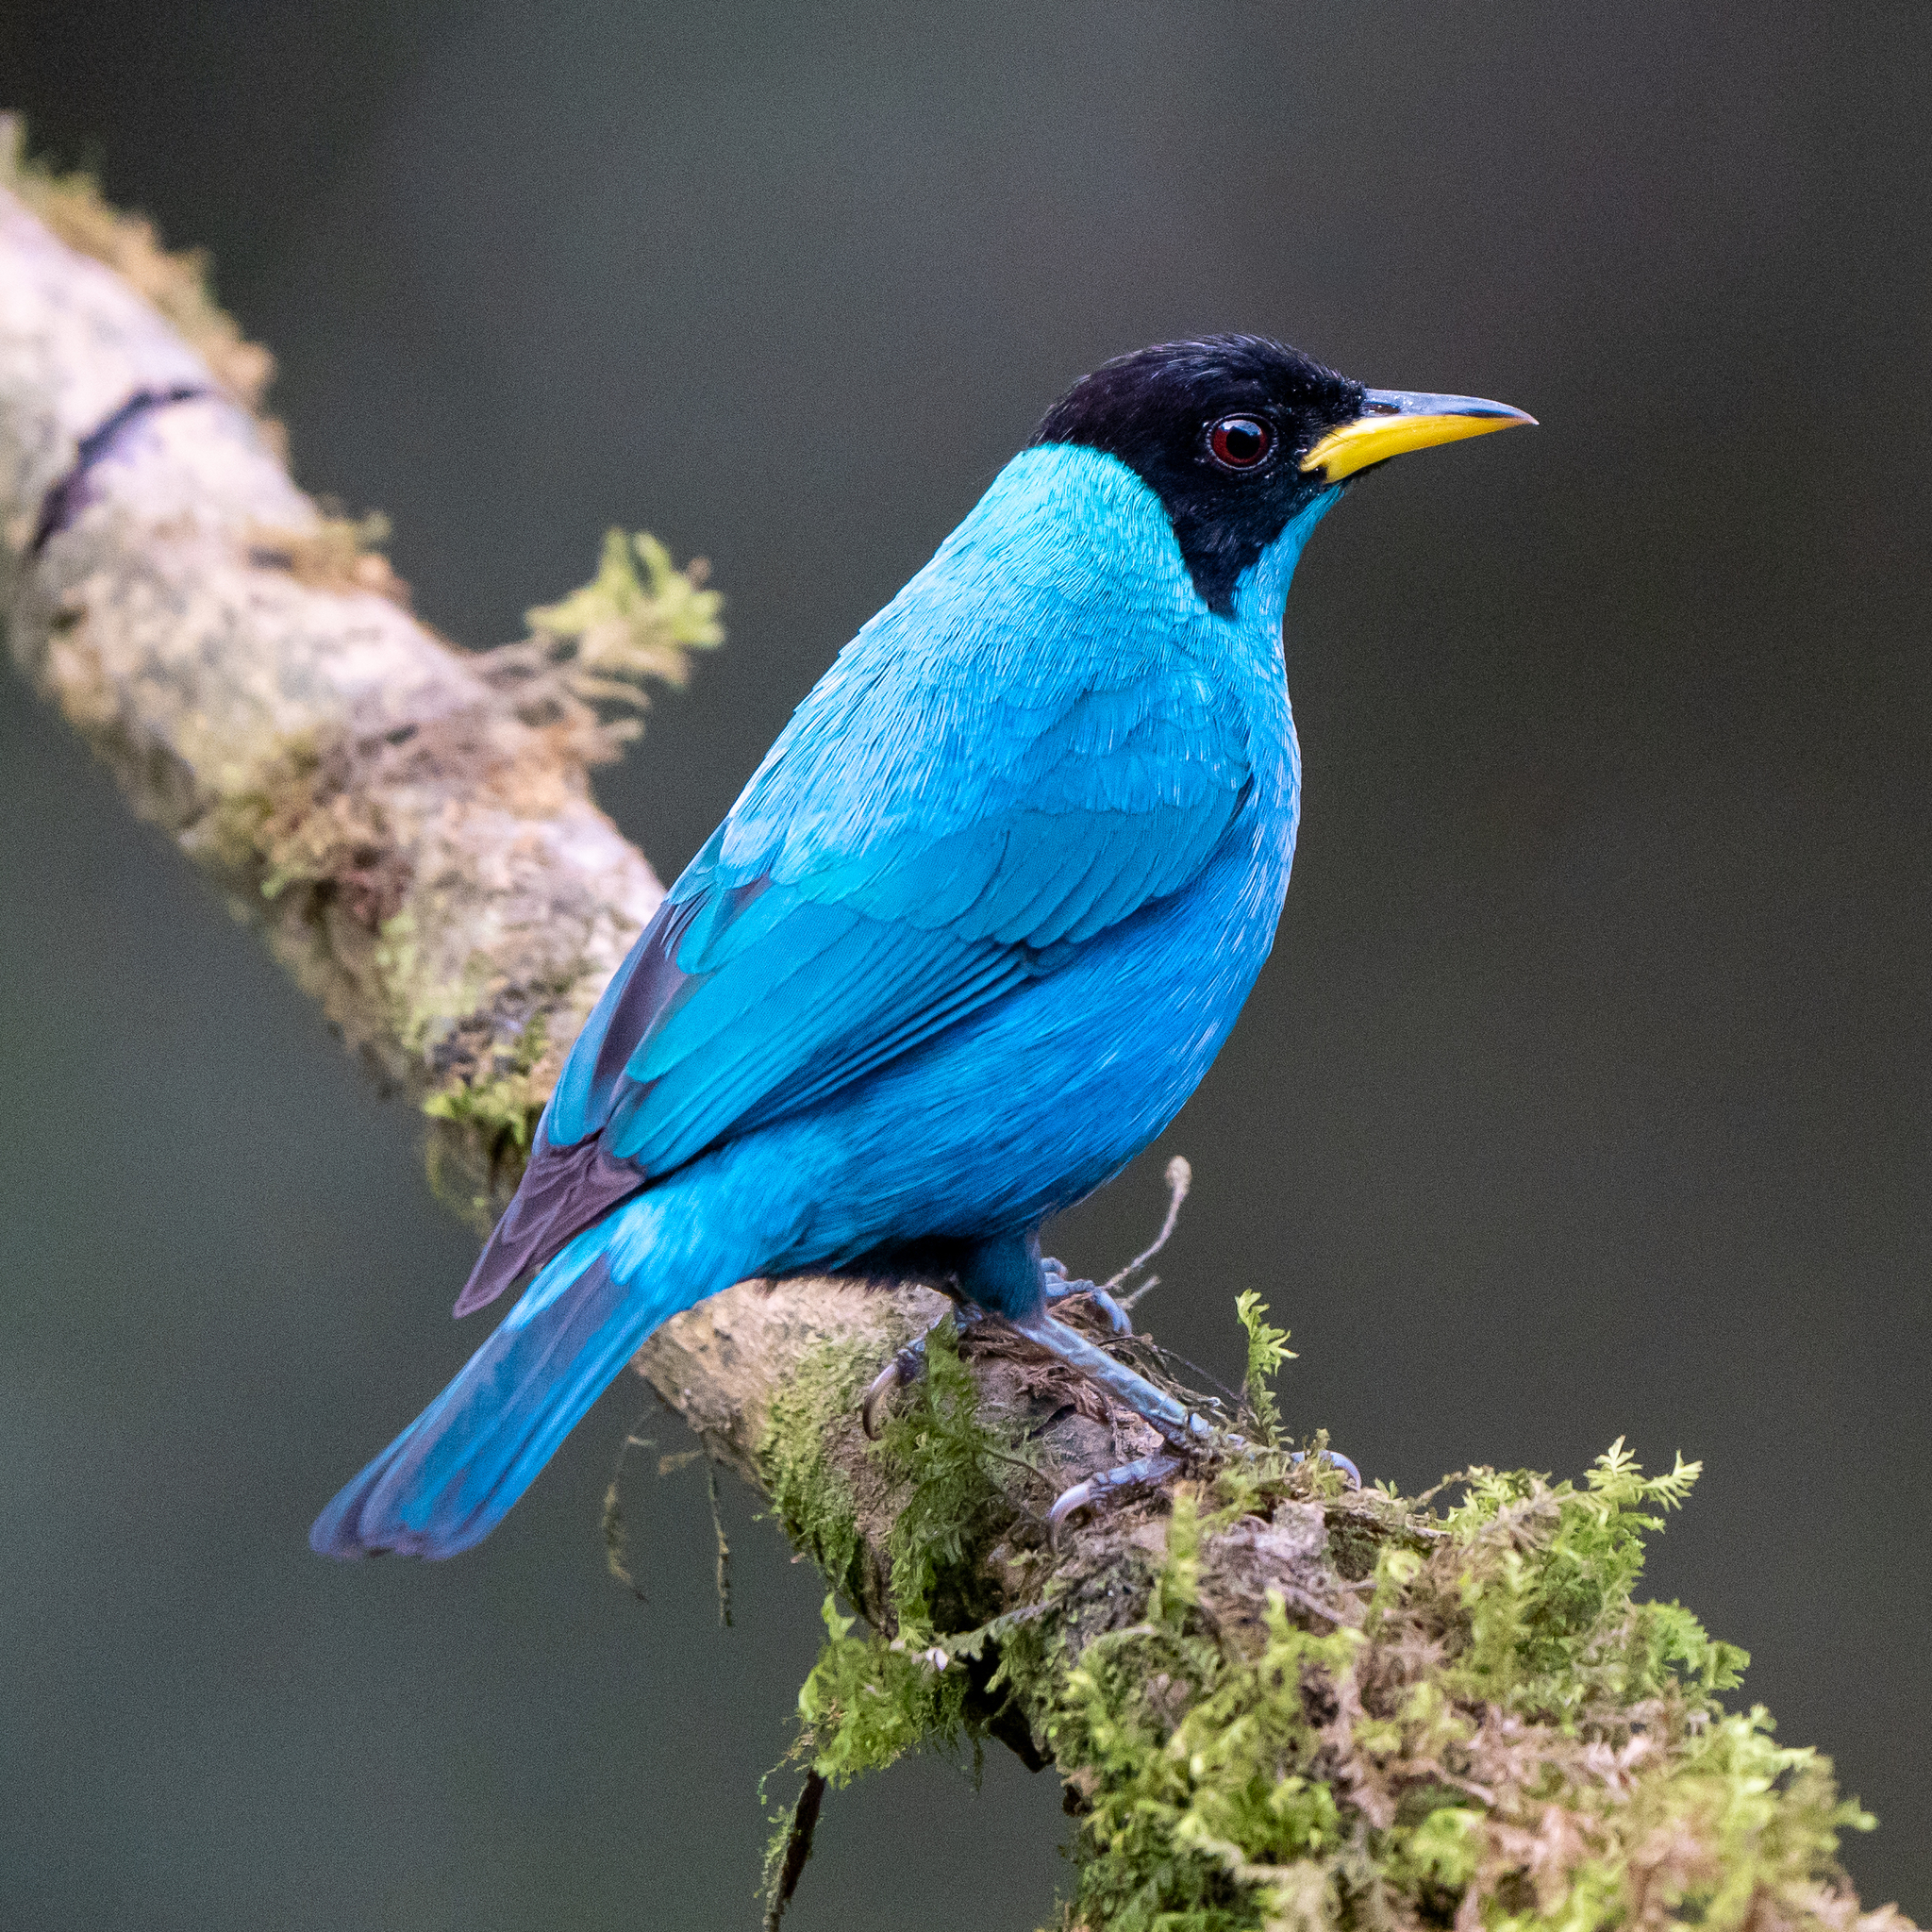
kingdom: Animalia
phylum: Chordata
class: Aves
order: Passeriformes
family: Thraupidae
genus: Chlorophanes
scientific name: Chlorophanes spiza
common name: Green honeycreeper
